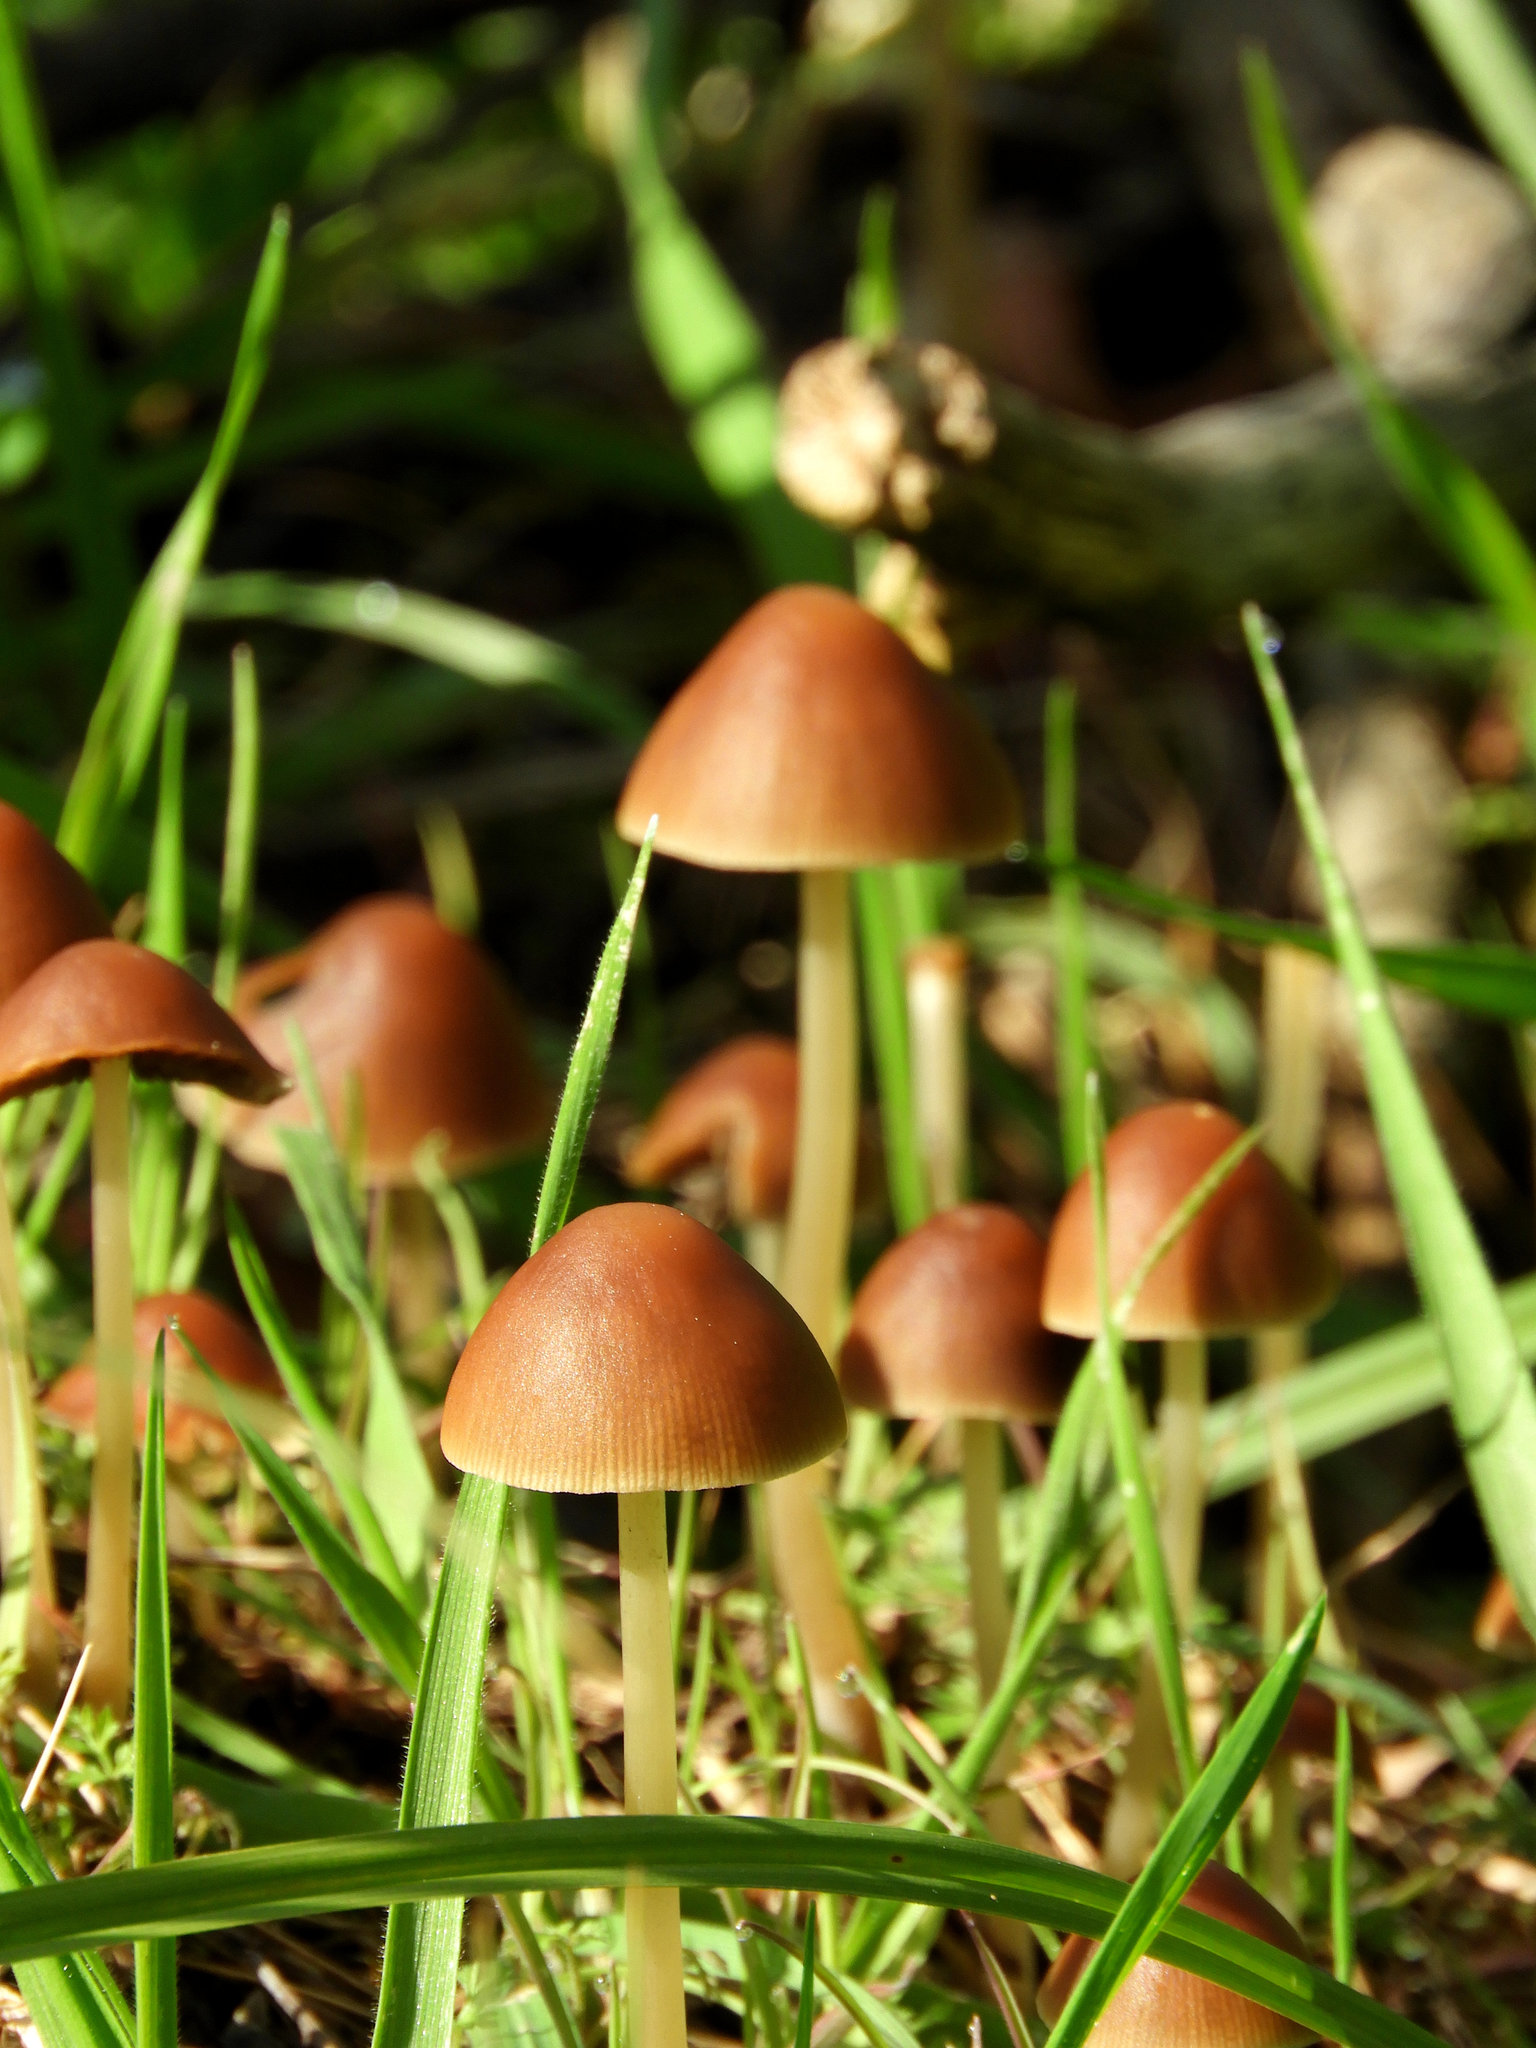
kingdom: Fungi
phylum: Basidiomycota
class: Agaricomycetes
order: Agaricales
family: Psathyrellaceae
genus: Parasola
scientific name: Parasola conopilea
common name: Conical brittlestem
